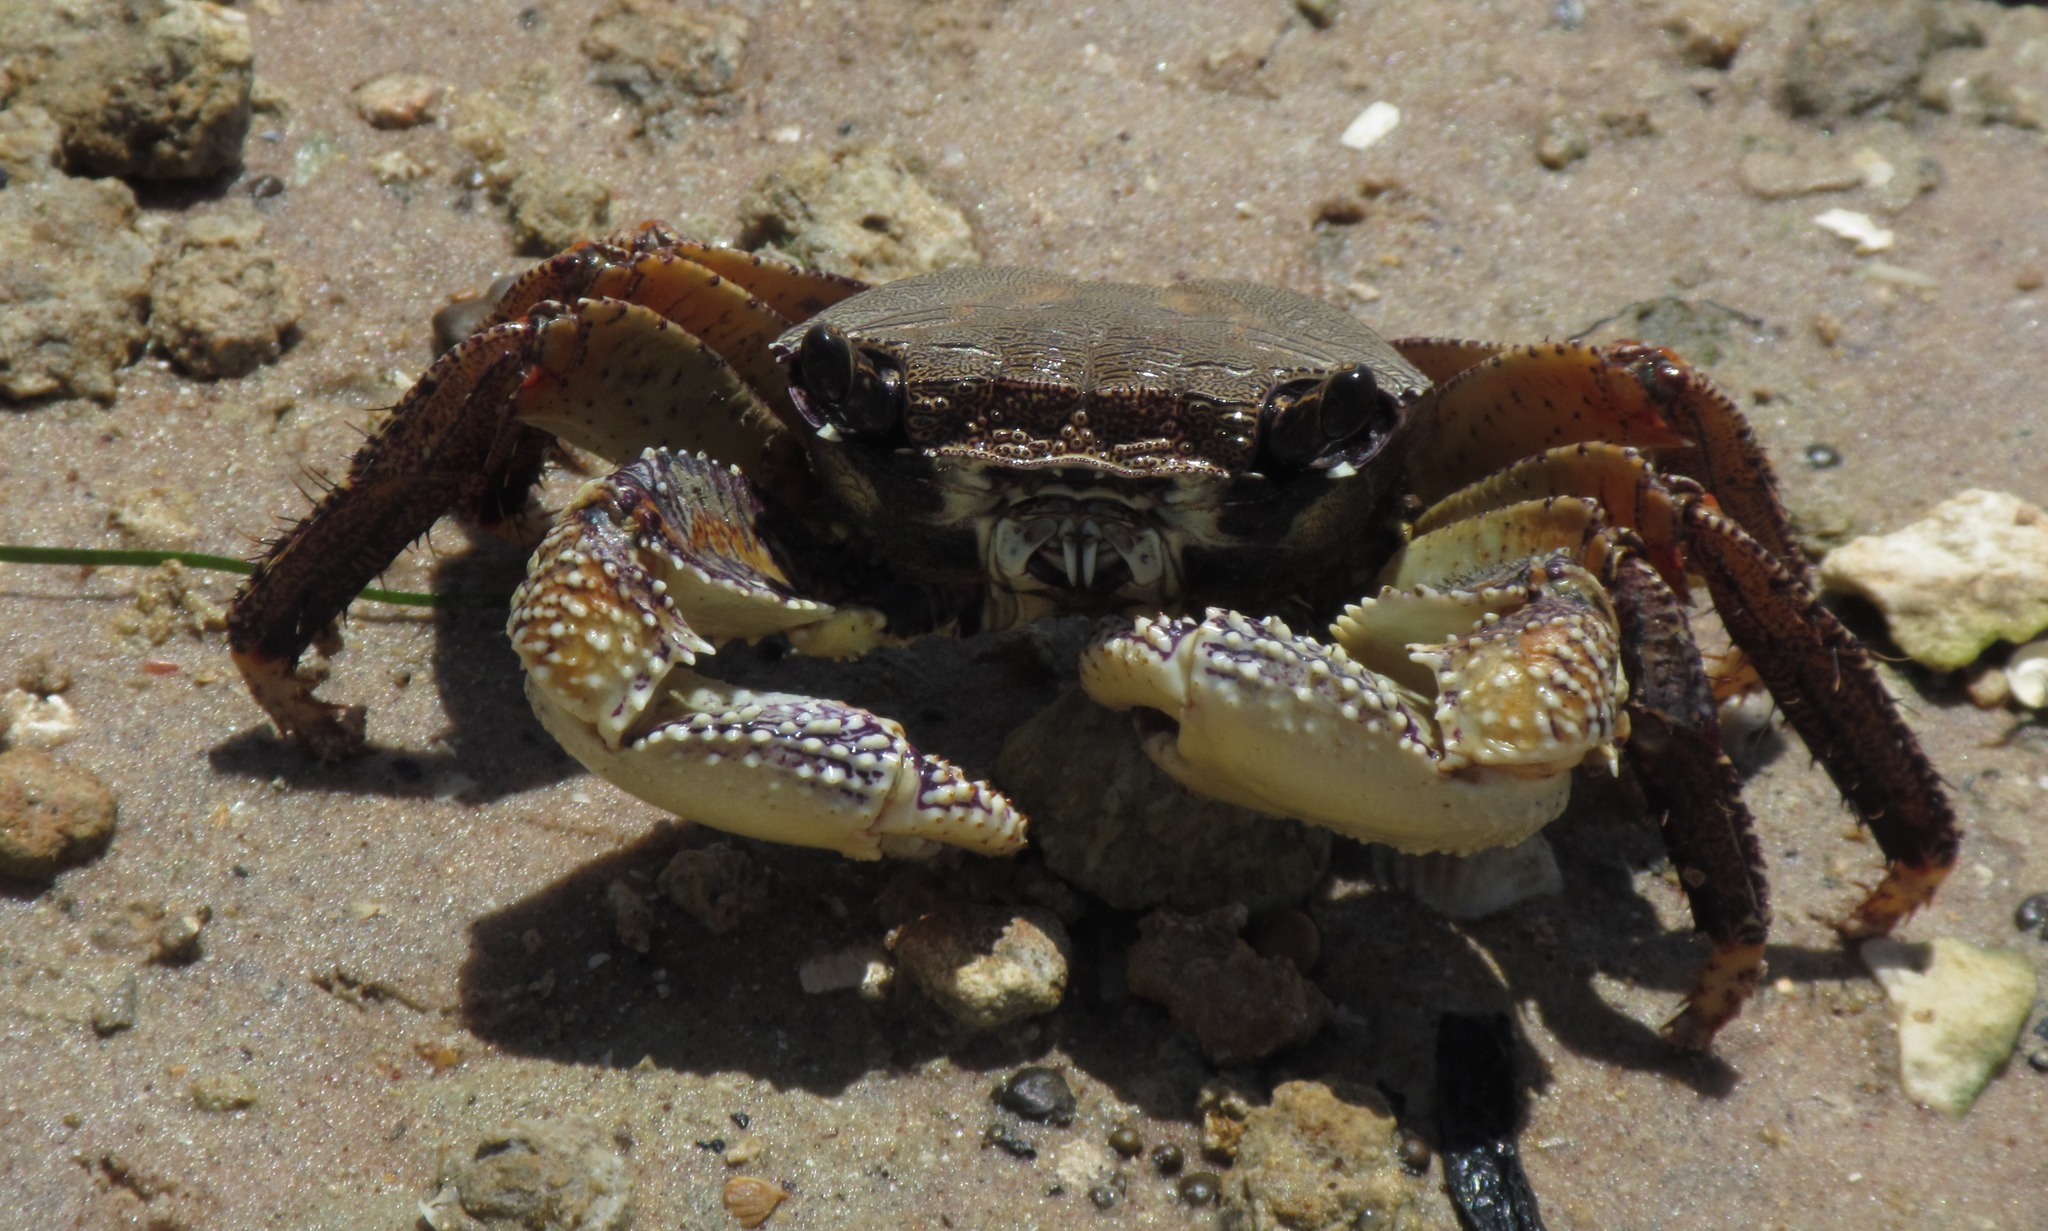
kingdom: Animalia
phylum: Arthropoda
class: Malacostraca
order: Decapoda
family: Grapsidae
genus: Goniopsis
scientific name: Goniopsis pelii
